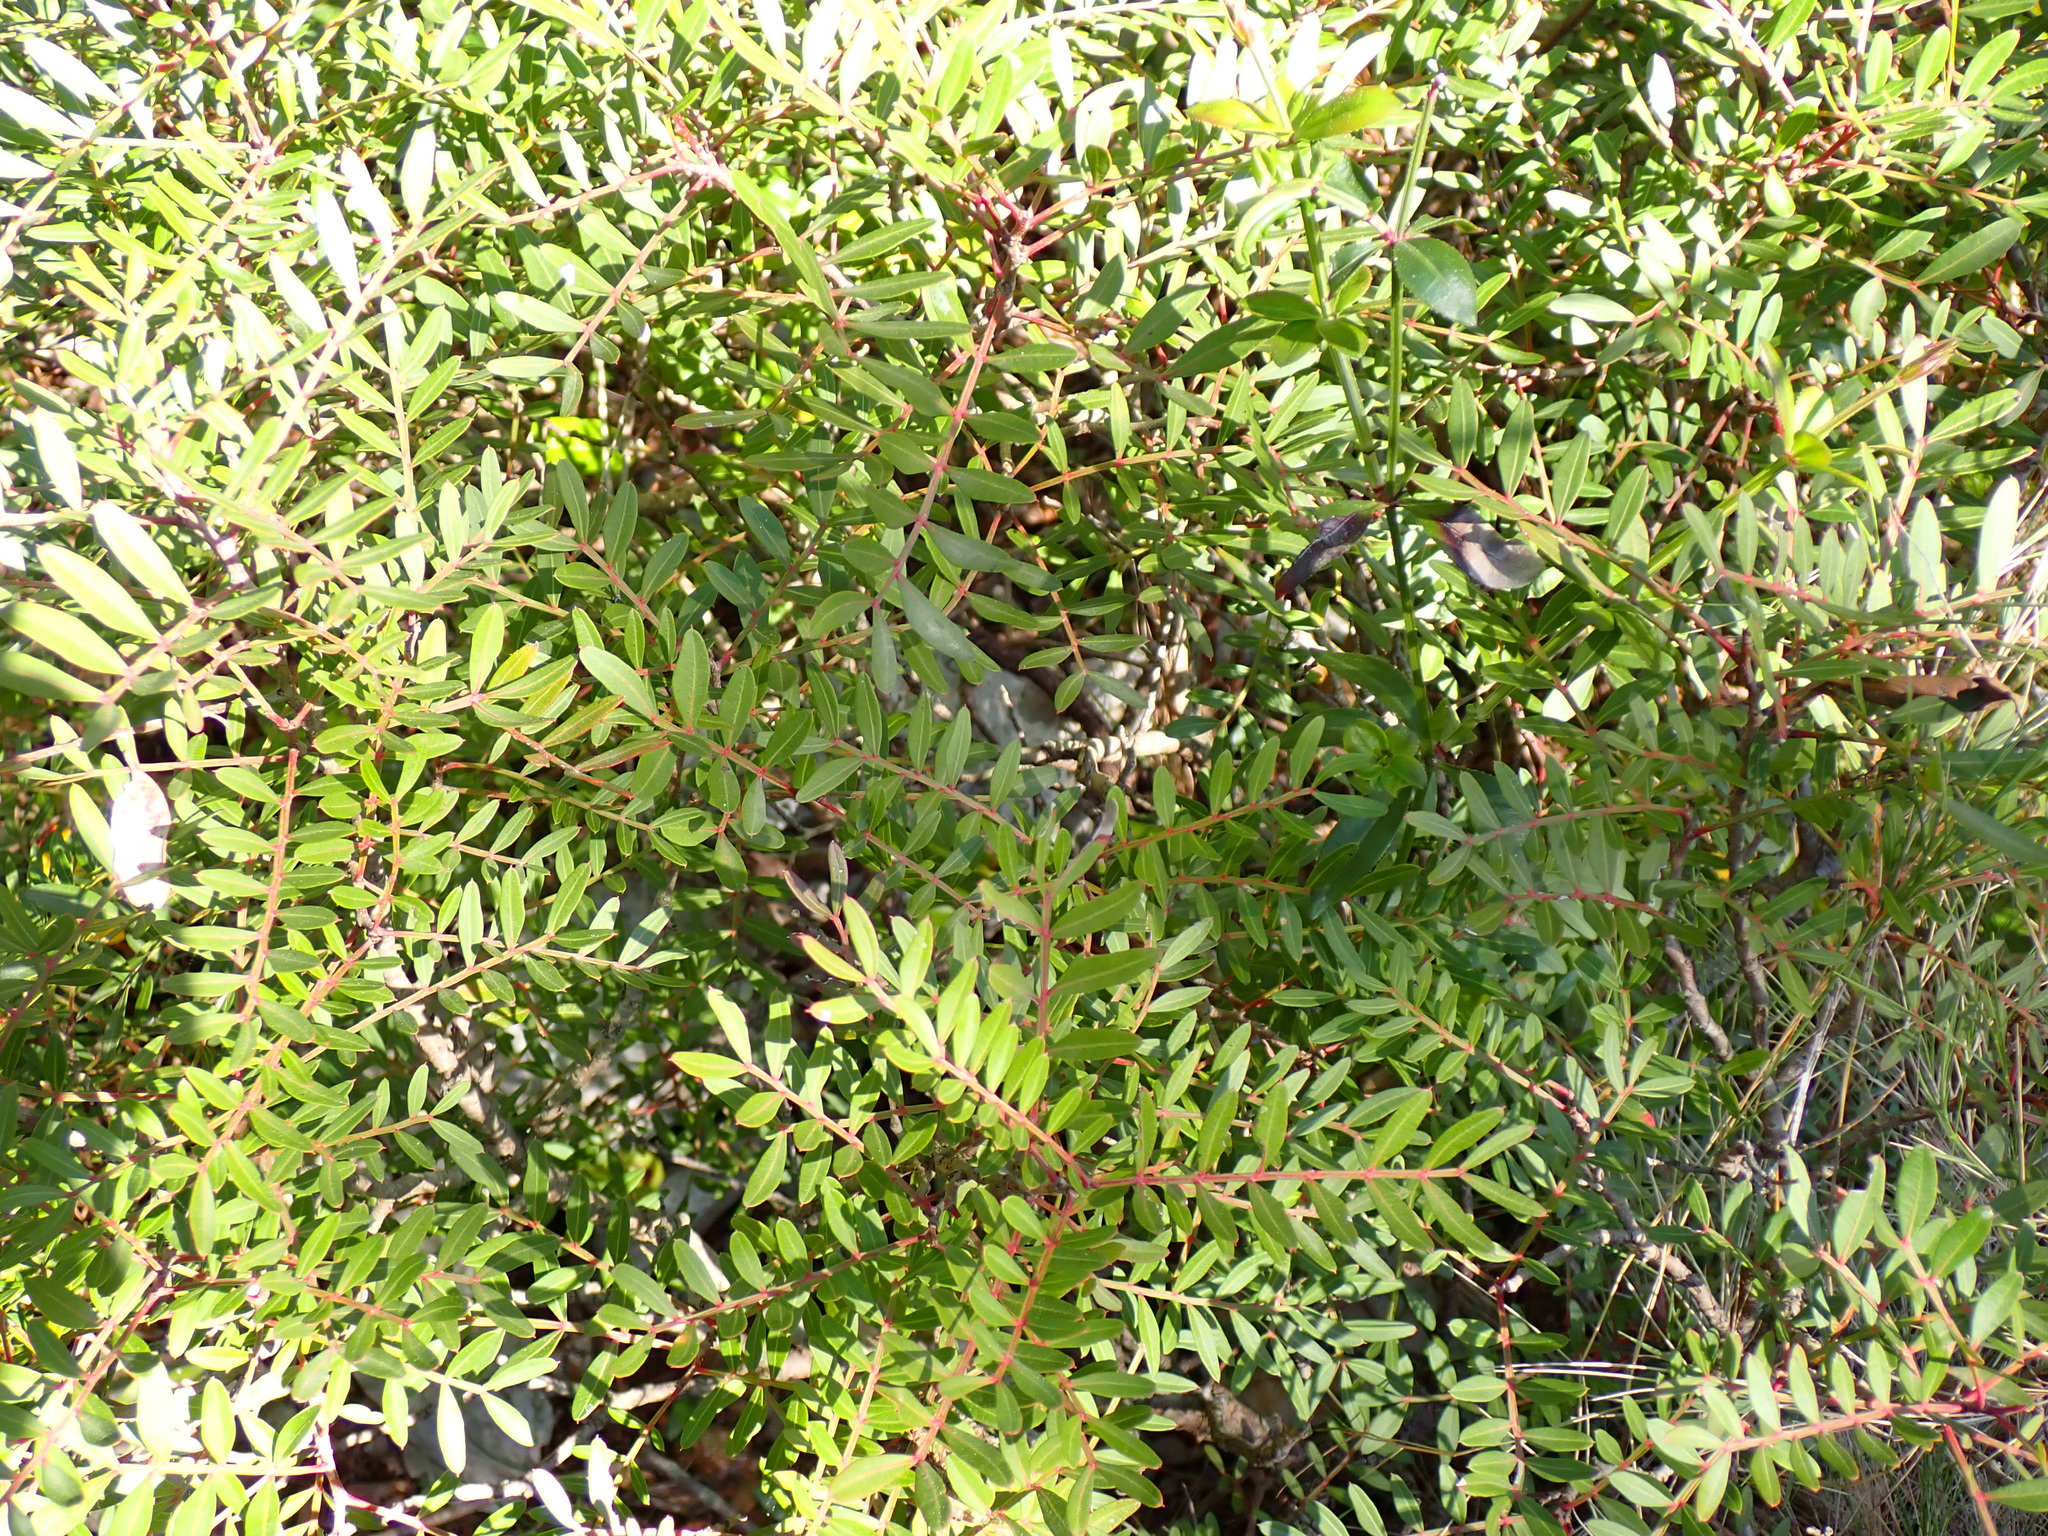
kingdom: Plantae
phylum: Tracheophyta
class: Magnoliopsida
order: Sapindales
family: Anacardiaceae
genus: Pistacia
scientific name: Pistacia lentiscus
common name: Lentisk
